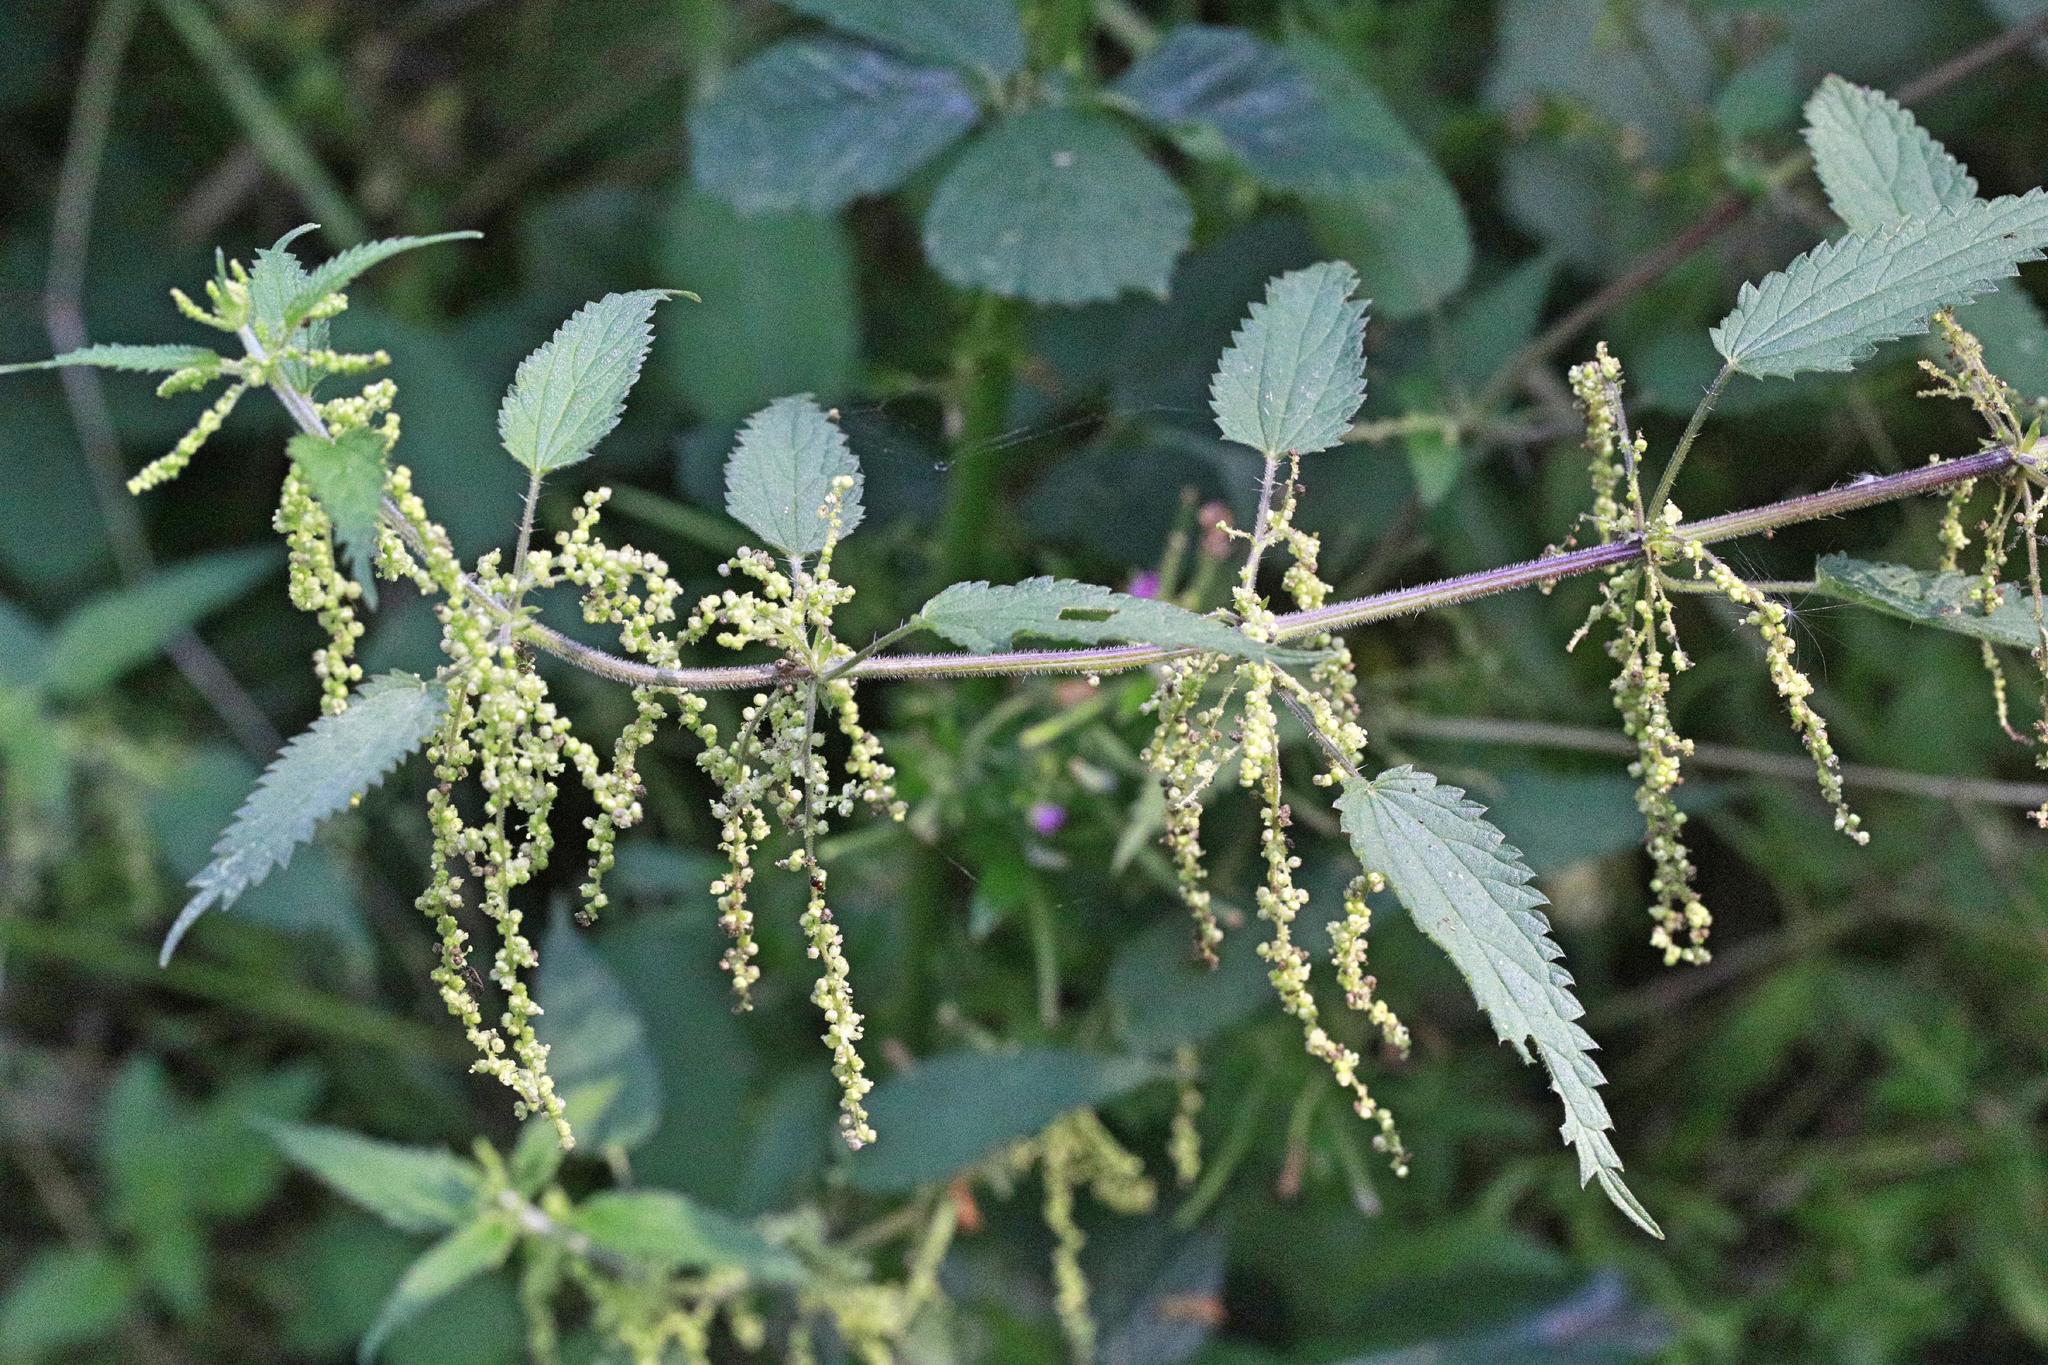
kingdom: Plantae
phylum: Tracheophyta
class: Magnoliopsida
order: Rosales
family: Urticaceae
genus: Urtica
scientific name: Urtica dioica
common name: Common nettle
